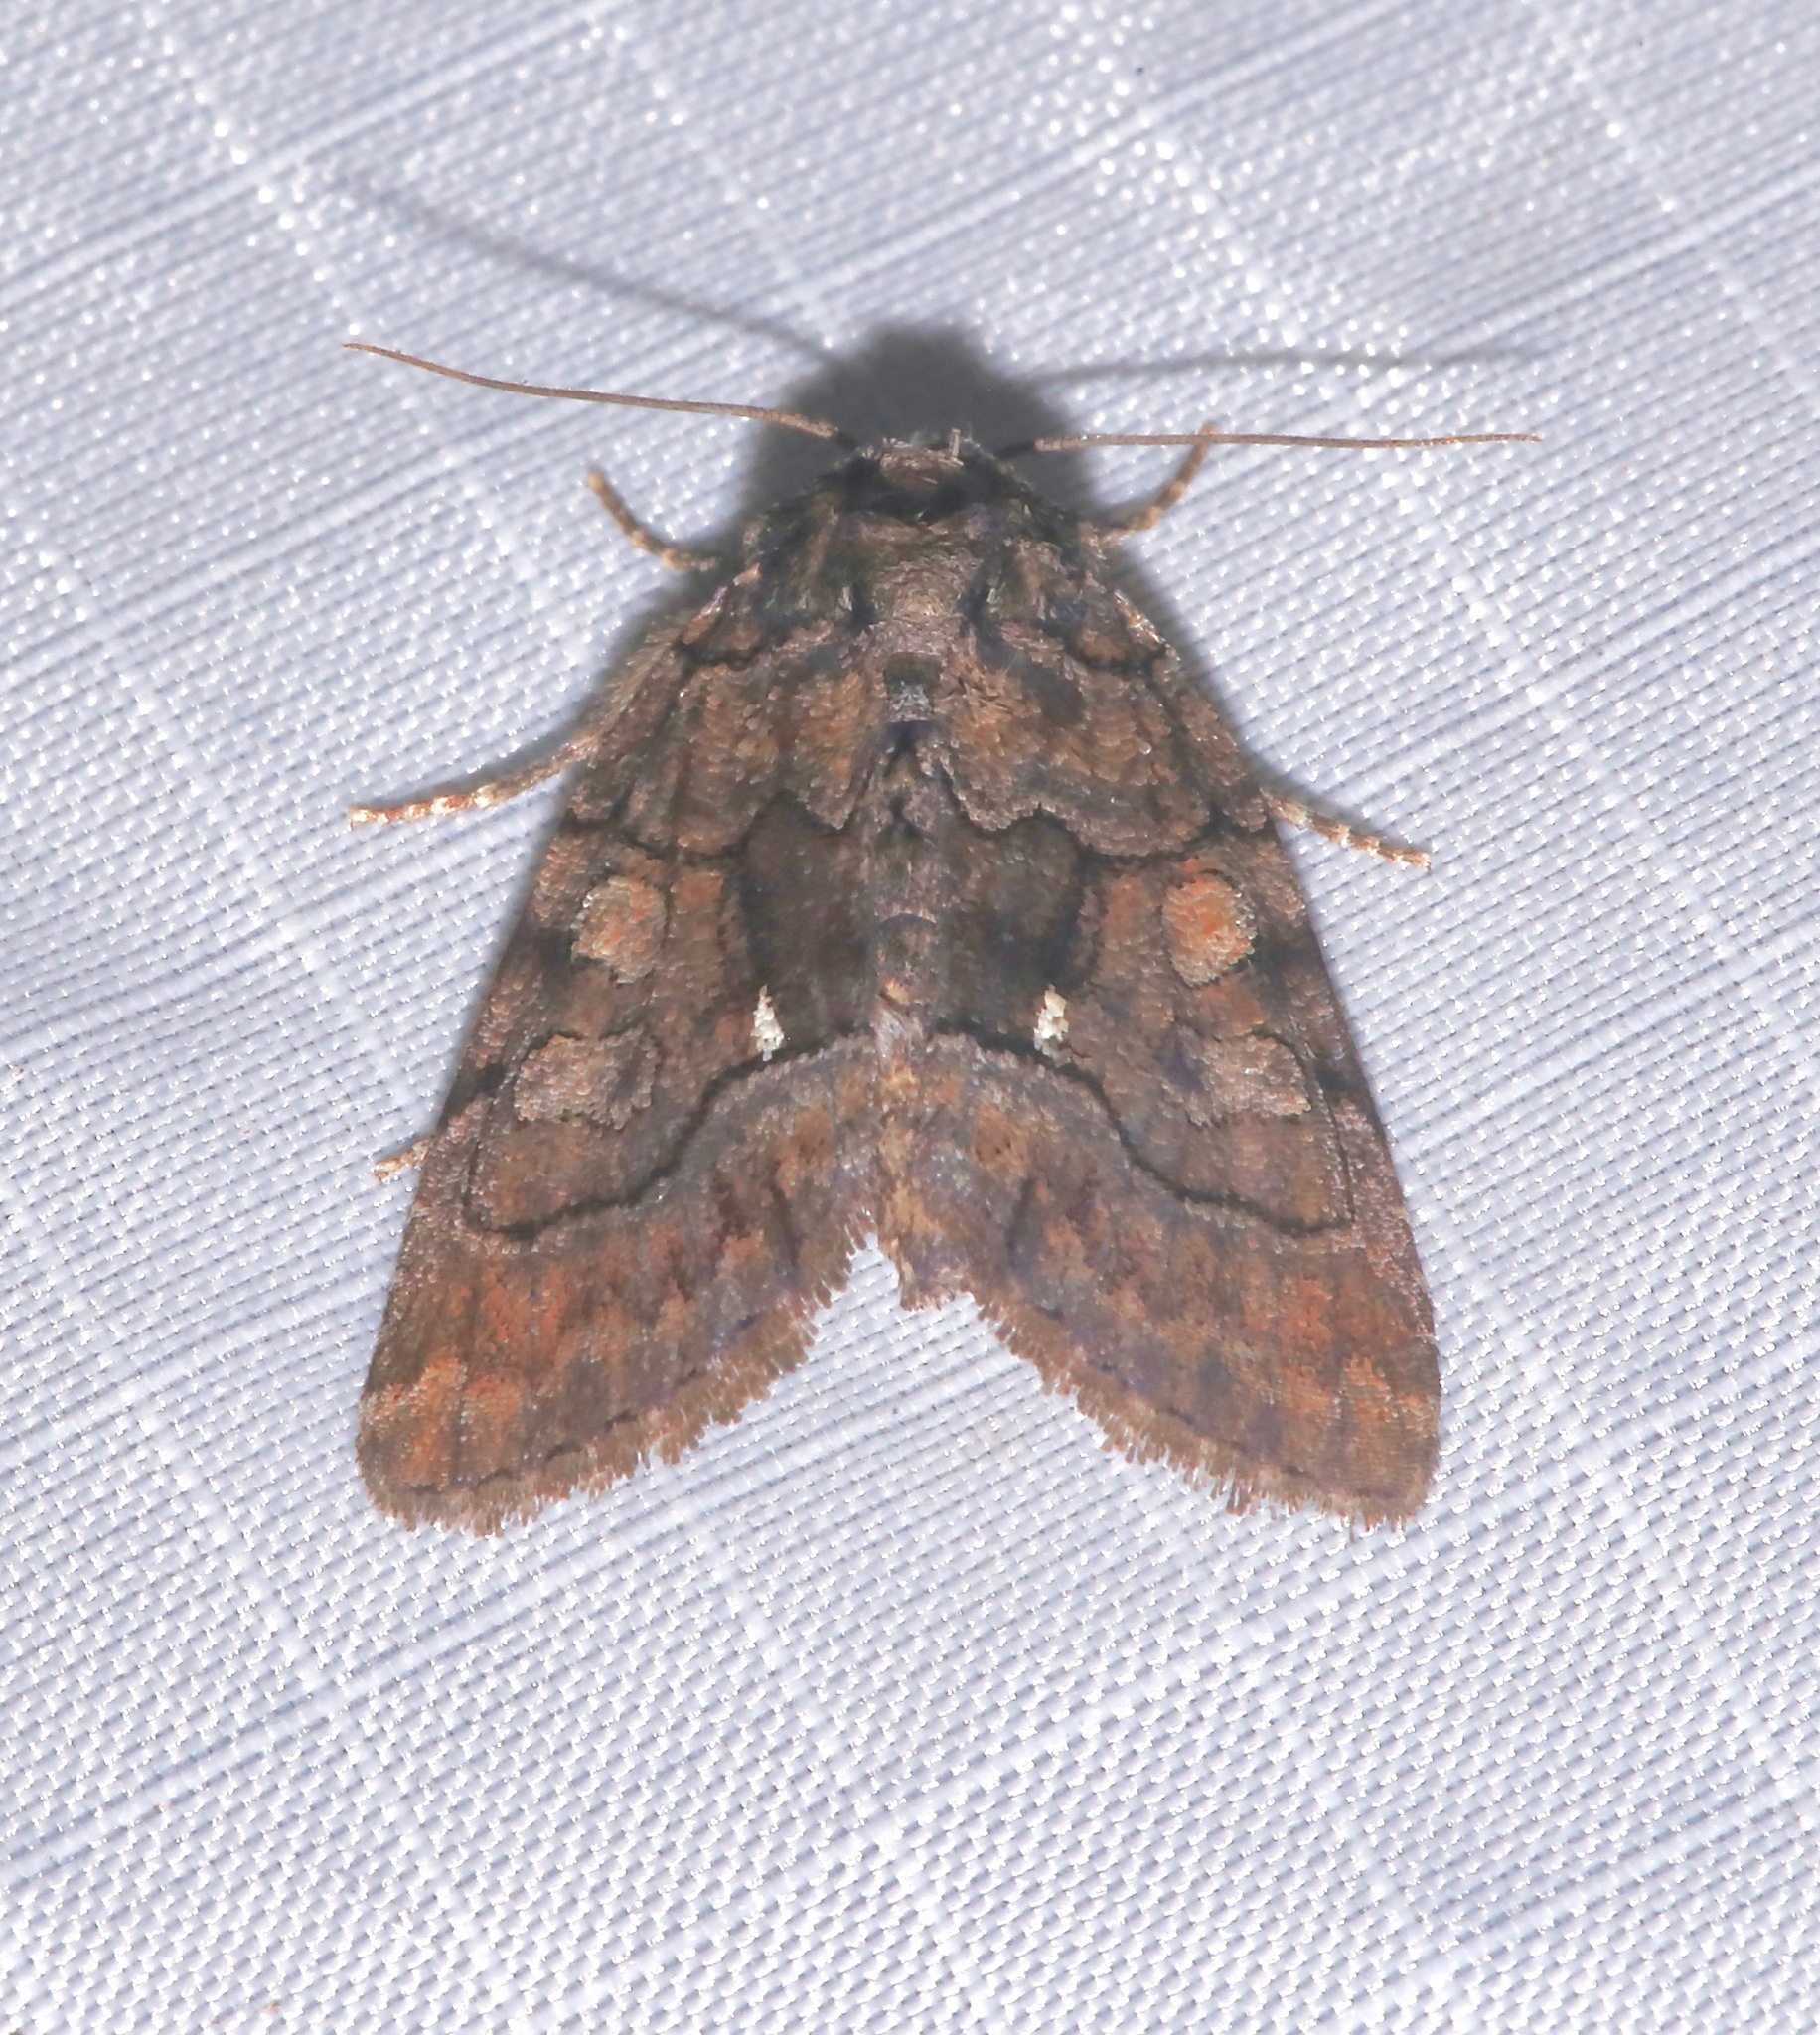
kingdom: Animalia
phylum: Arthropoda
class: Insecta
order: Lepidoptera
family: Noctuidae
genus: Chytonix
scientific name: Chytonix palliatricula
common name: Cloaked marvel
